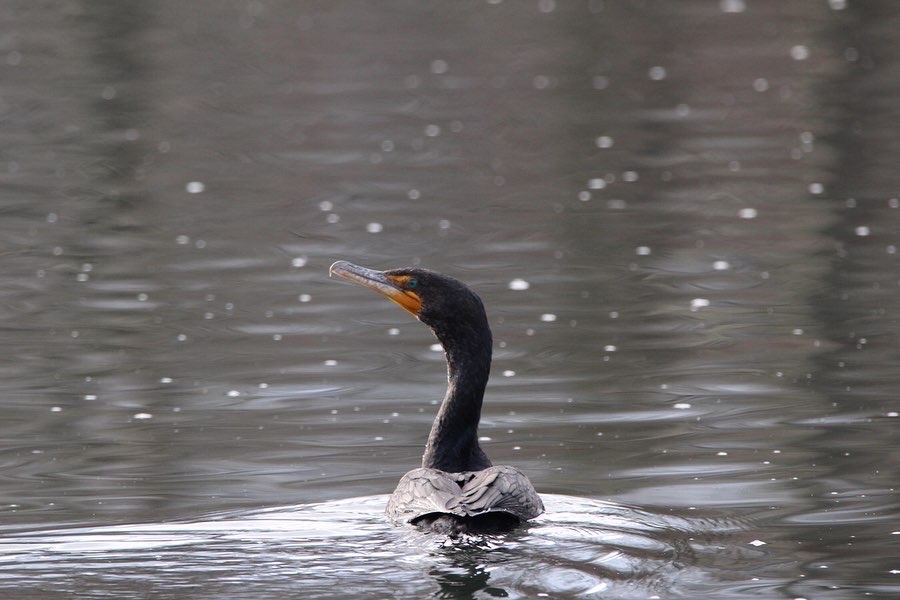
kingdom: Animalia
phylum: Chordata
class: Aves
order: Suliformes
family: Phalacrocoracidae
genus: Phalacrocorax
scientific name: Phalacrocorax auritus
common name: Double-crested cormorant
